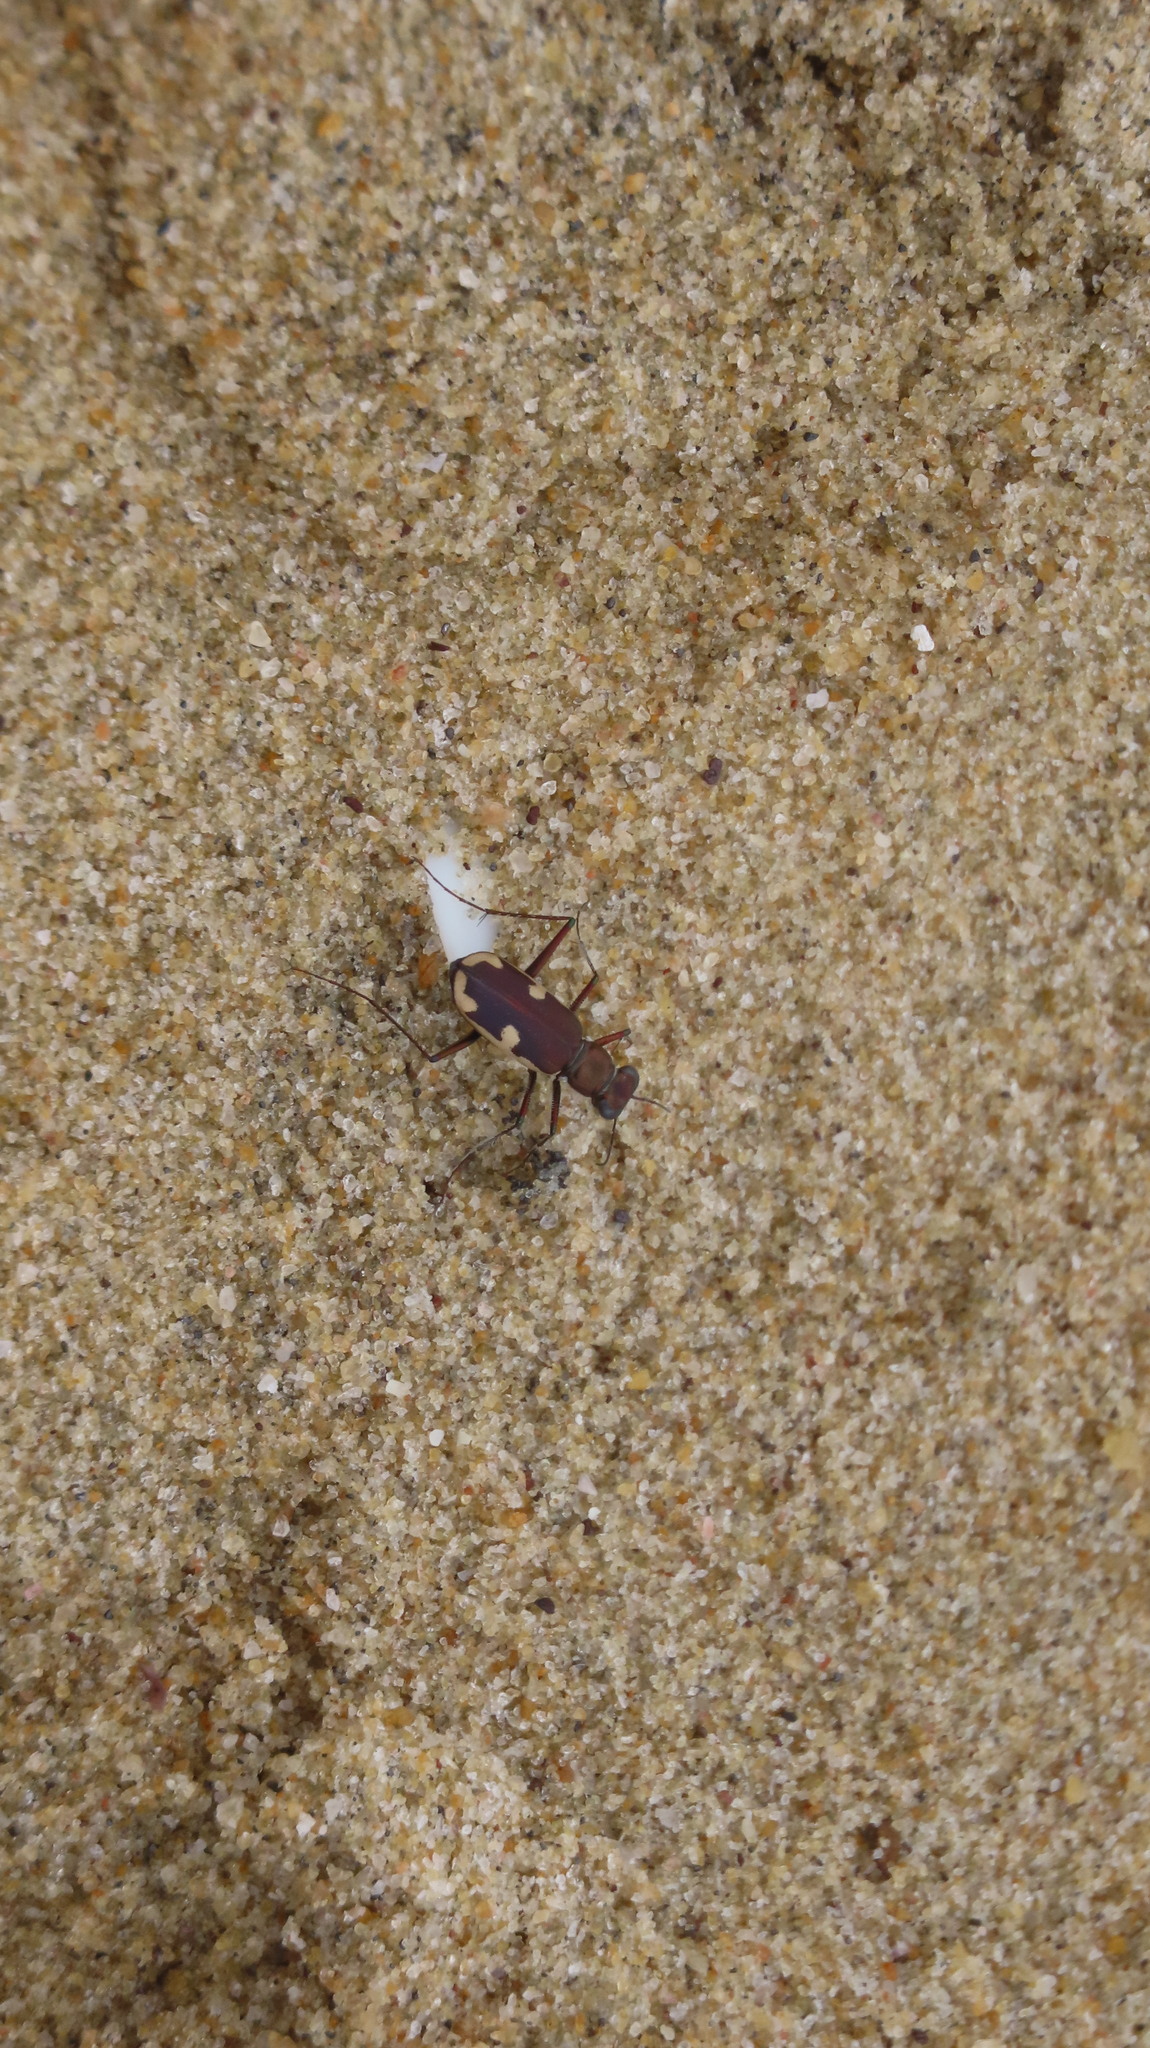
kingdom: Animalia
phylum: Arthropoda
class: Insecta
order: Coleoptera
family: Carabidae
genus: Hypaetha
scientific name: Hypaetha biramosa
